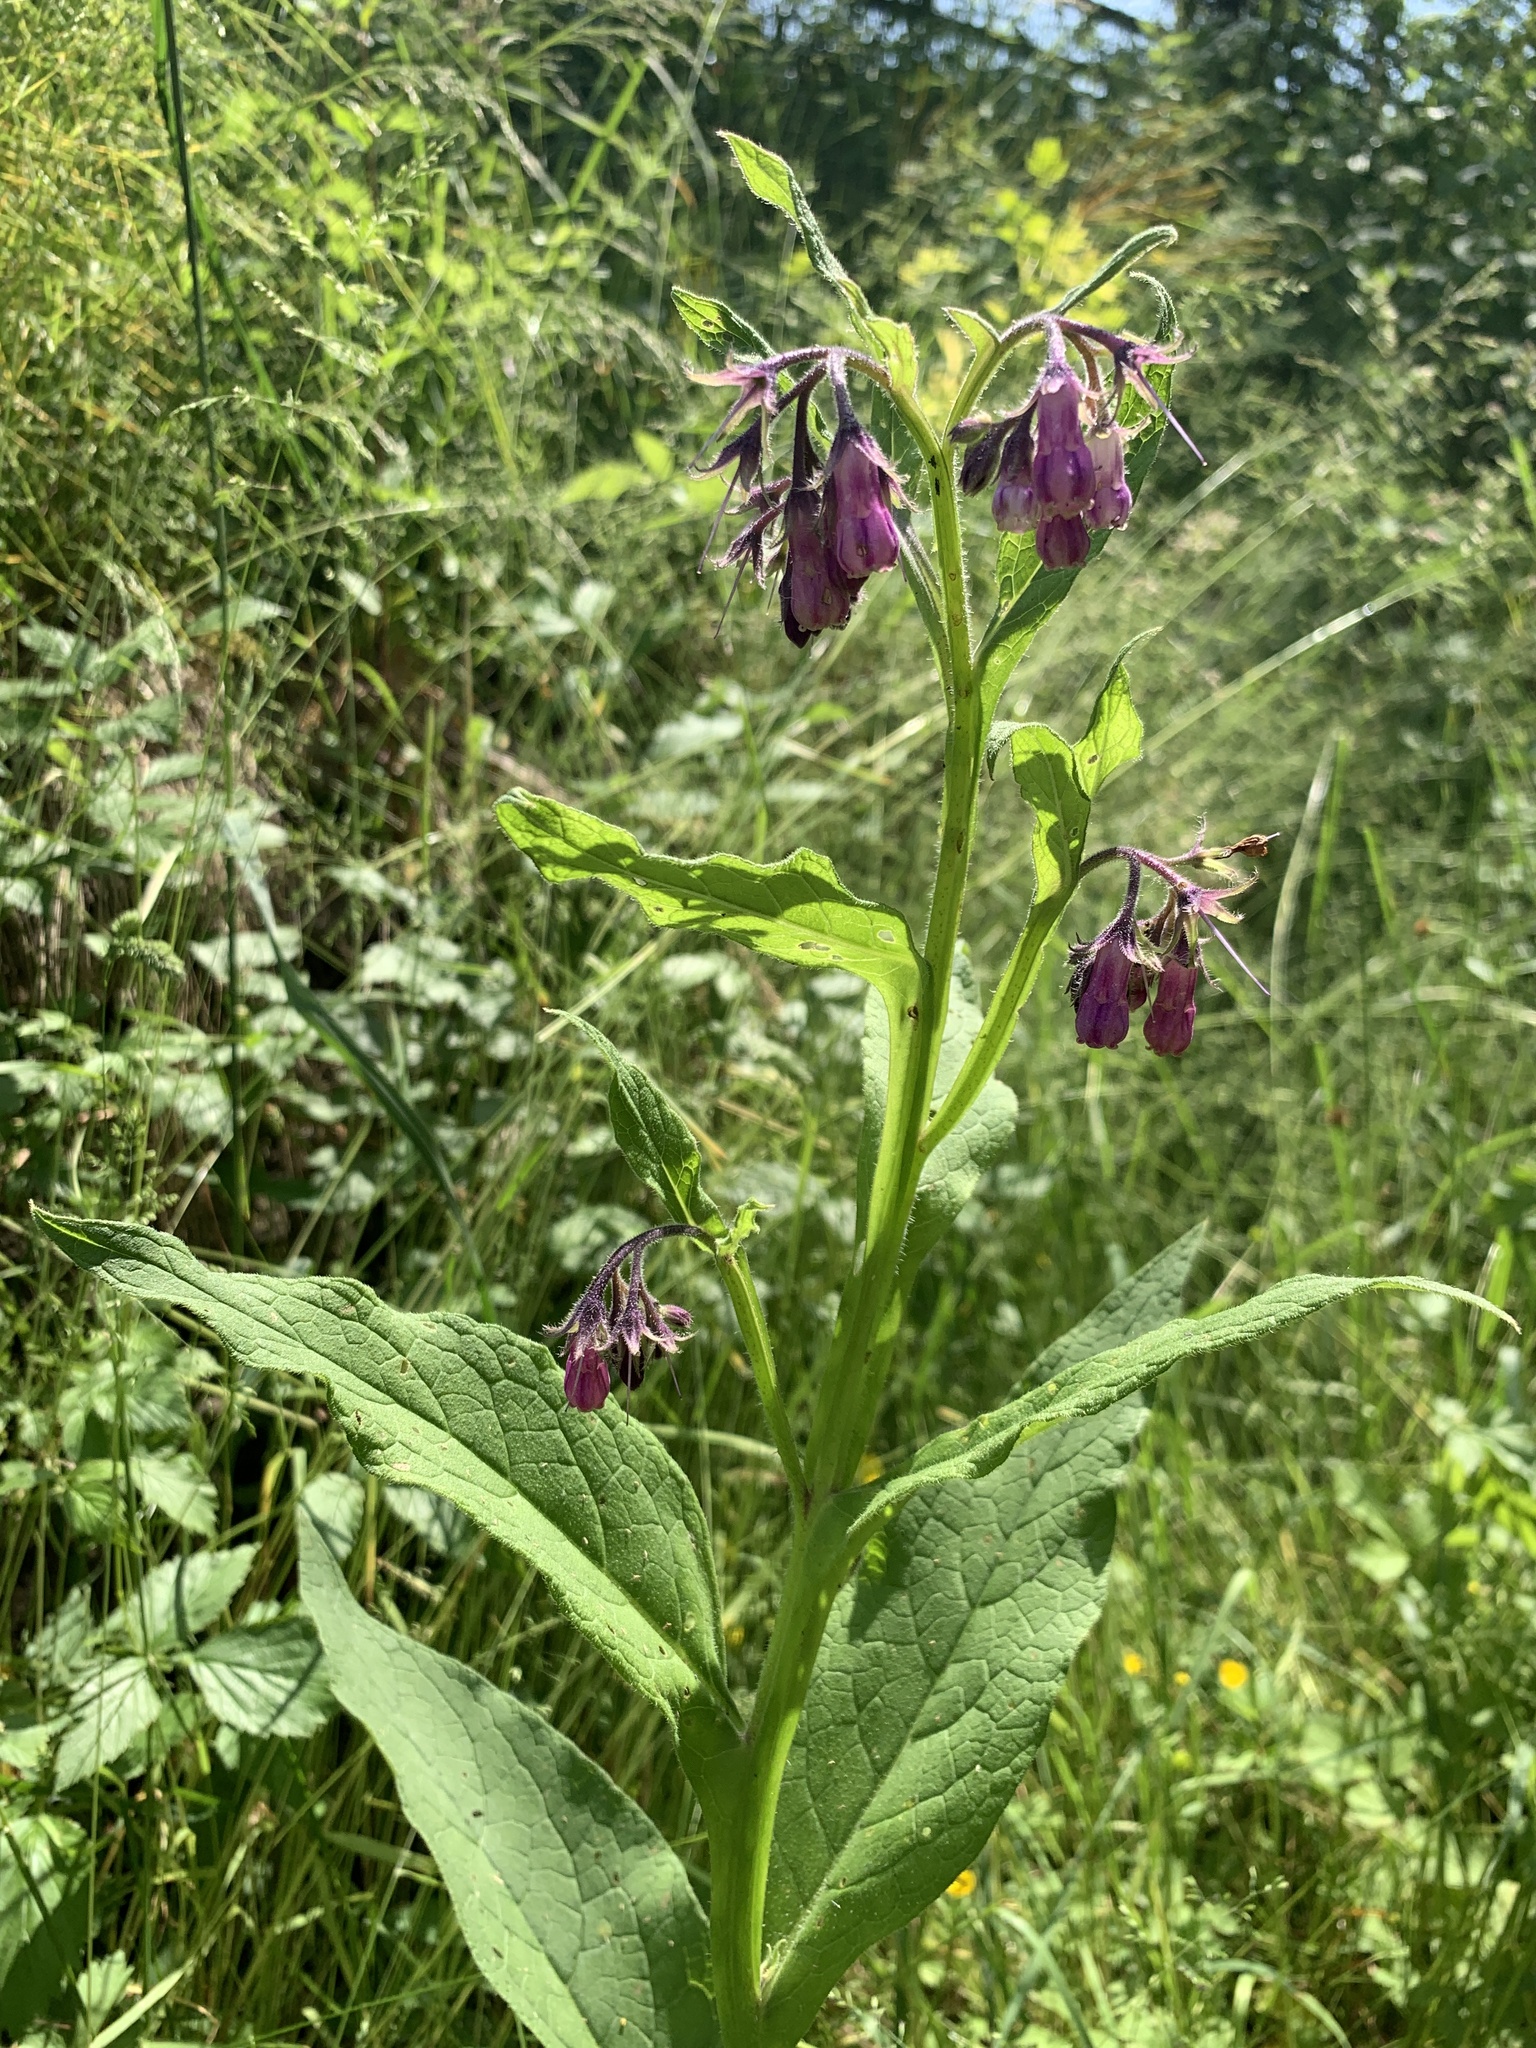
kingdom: Plantae
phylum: Tracheophyta
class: Magnoliopsida
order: Boraginales
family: Boraginaceae
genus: Symphytum
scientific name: Symphytum officinale
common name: Common comfrey
